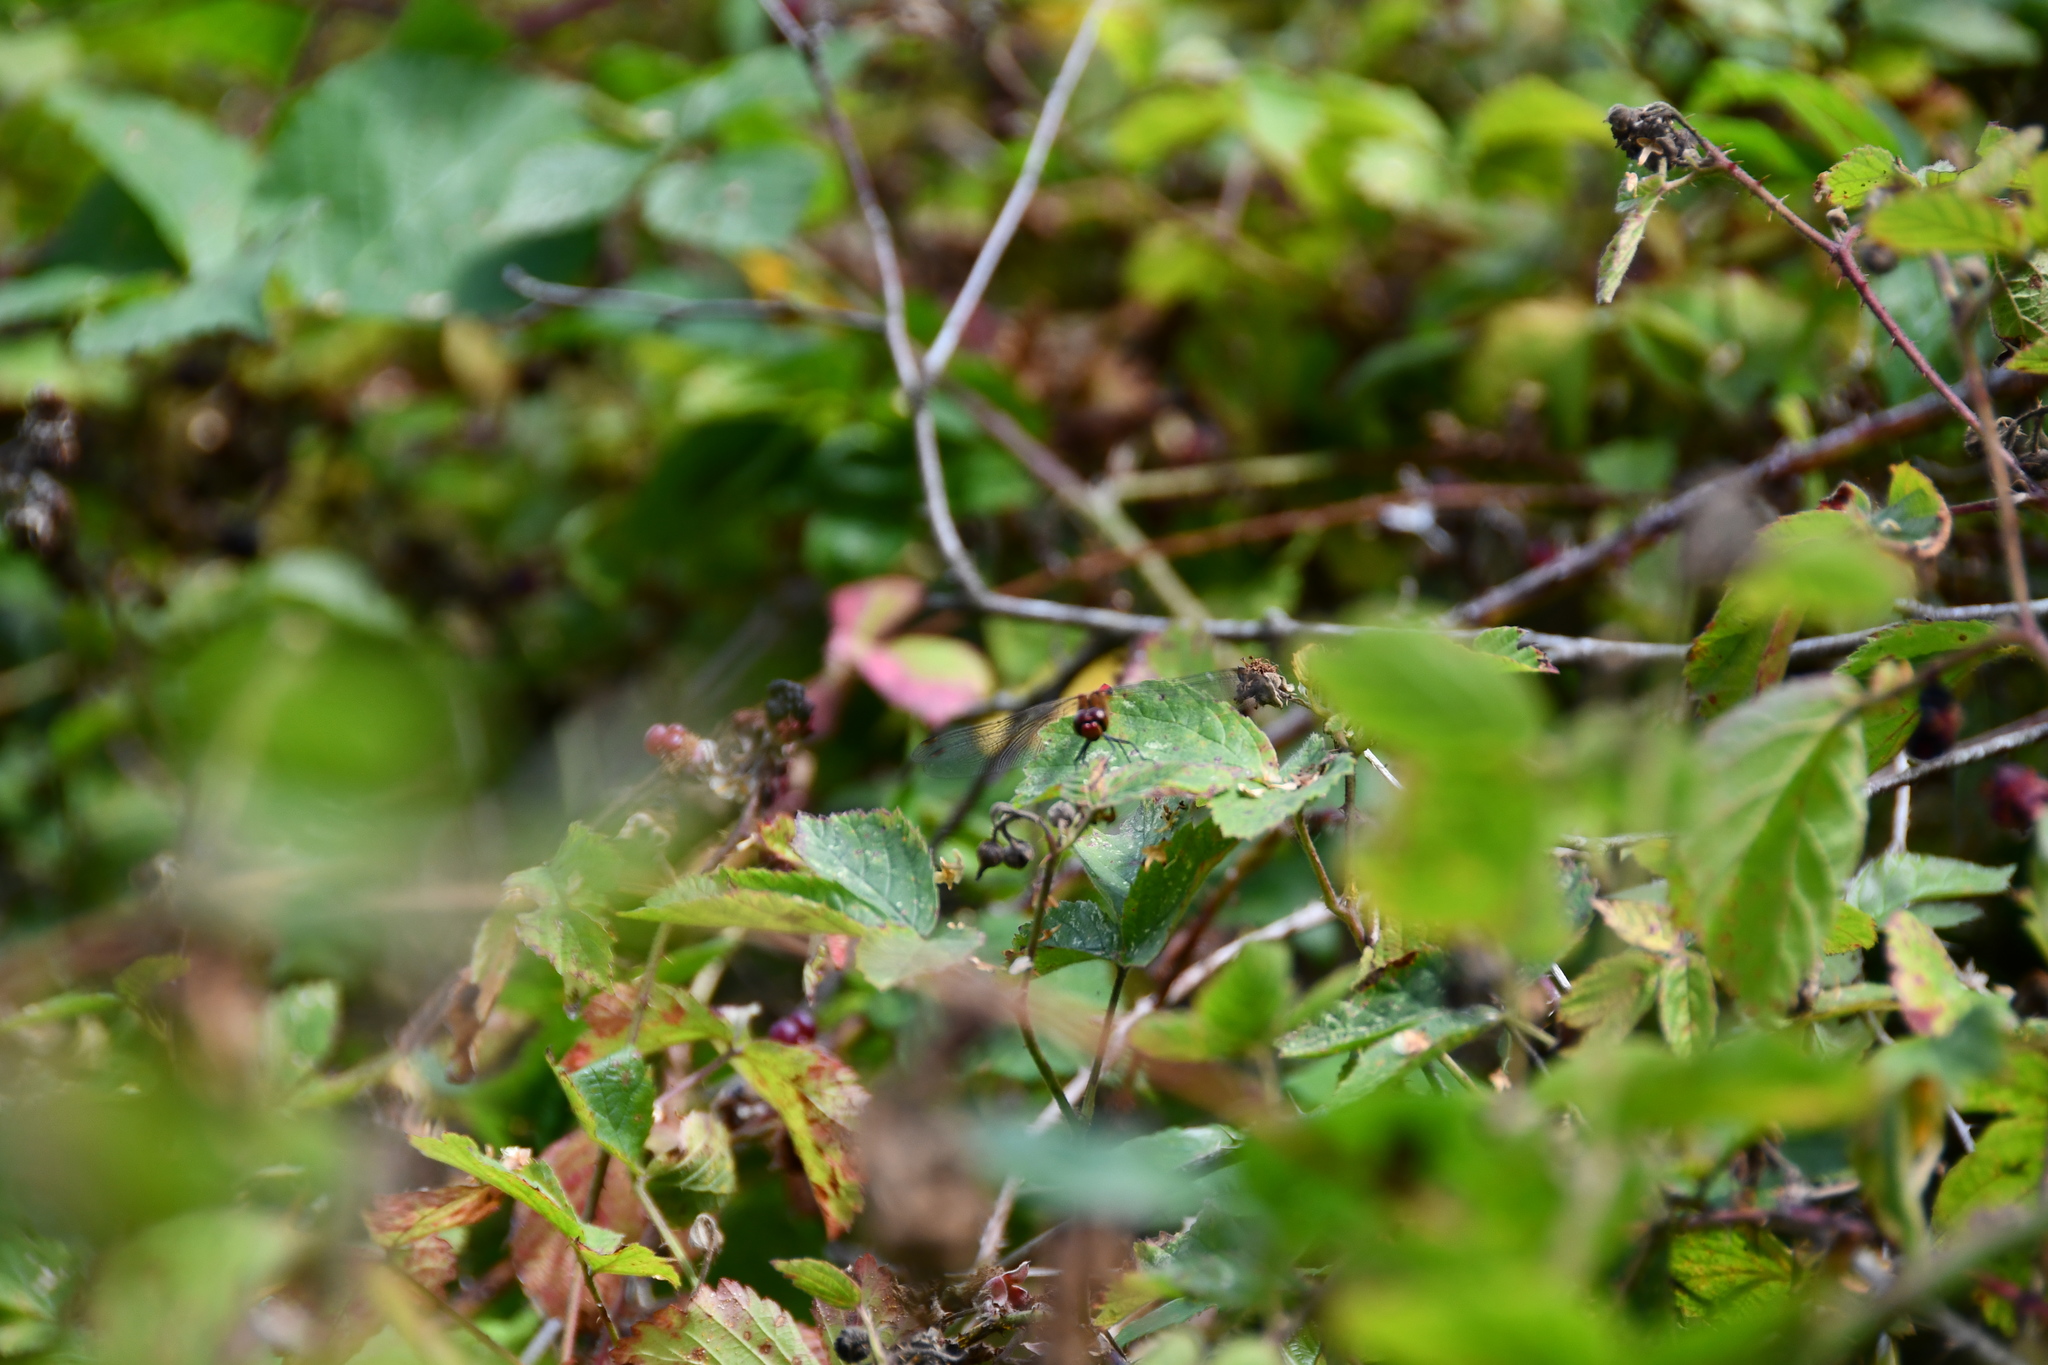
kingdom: Animalia
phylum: Arthropoda
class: Insecta
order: Odonata
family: Libellulidae
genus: Sympetrum
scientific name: Sympetrum sanguineum
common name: Ruddy darter
